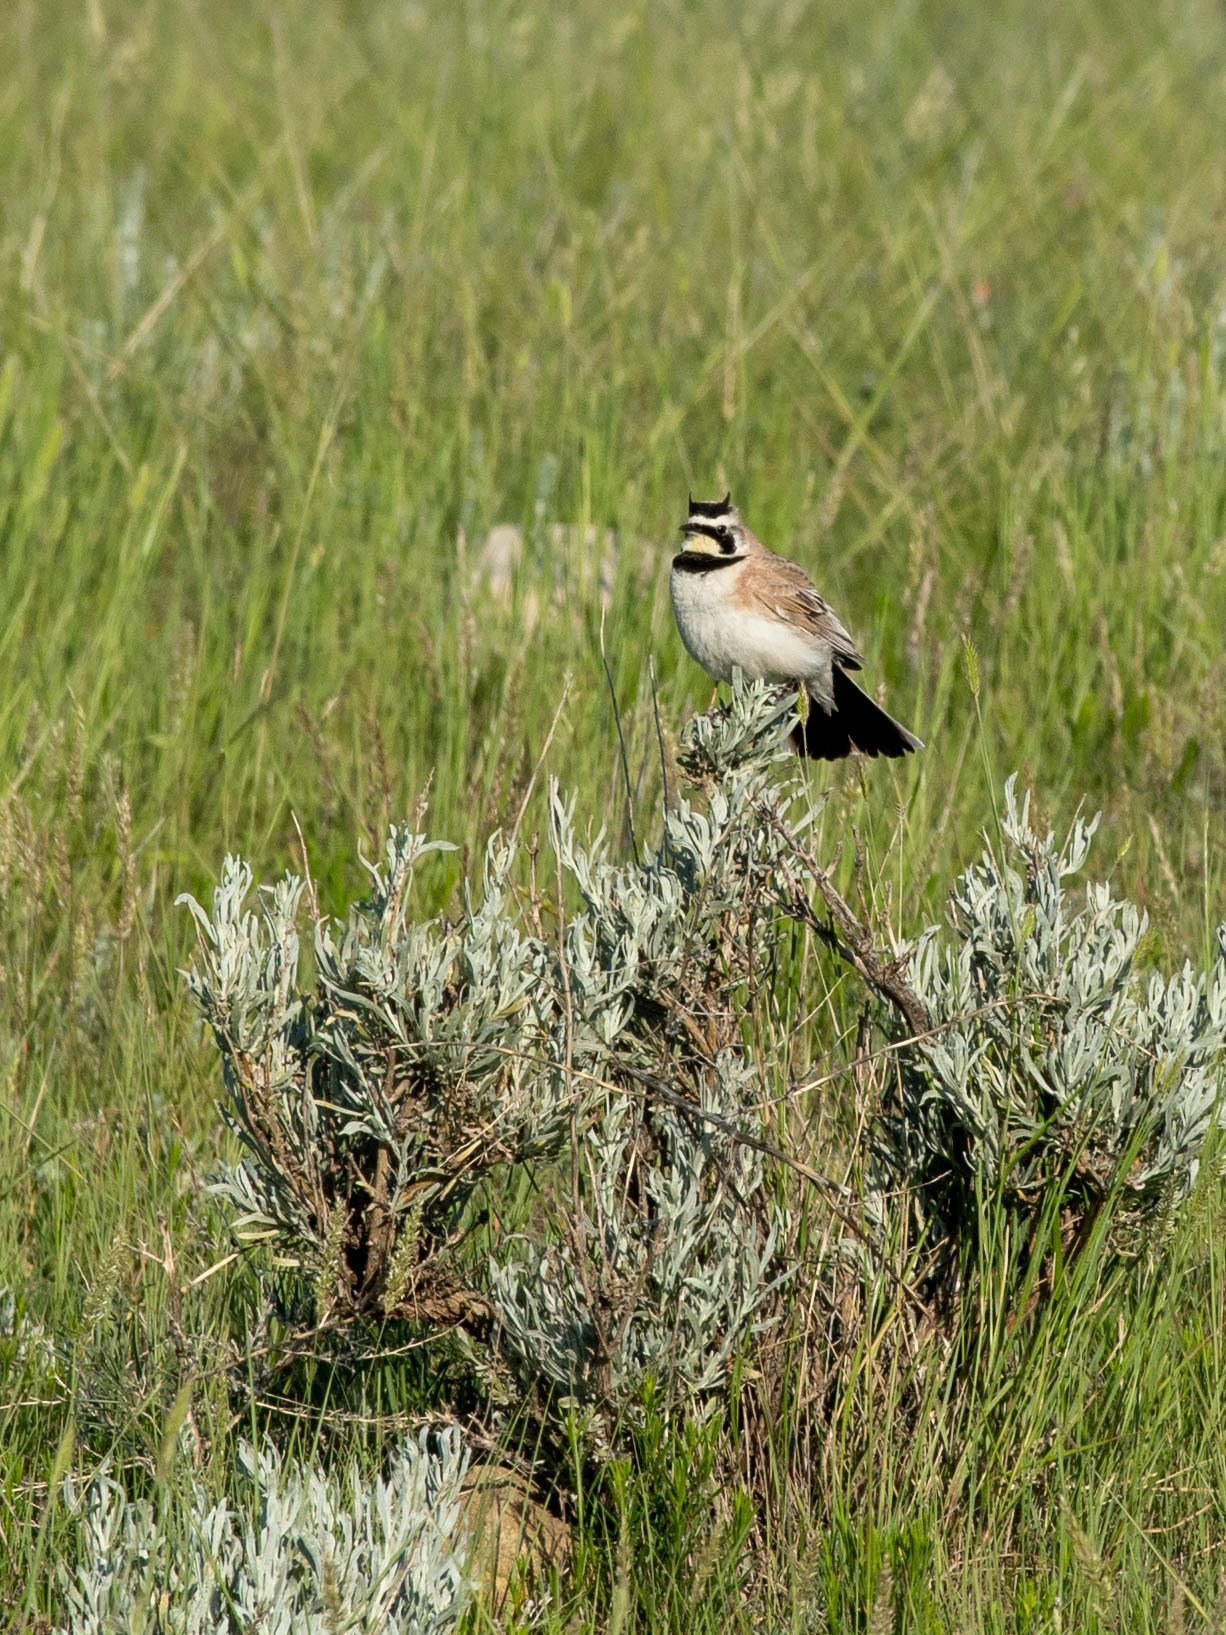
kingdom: Animalia
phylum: Chordata
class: Aves
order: Passeriformes
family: Alaudidae
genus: Eremophila
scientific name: Eremophila alpestris
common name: Horned lark
